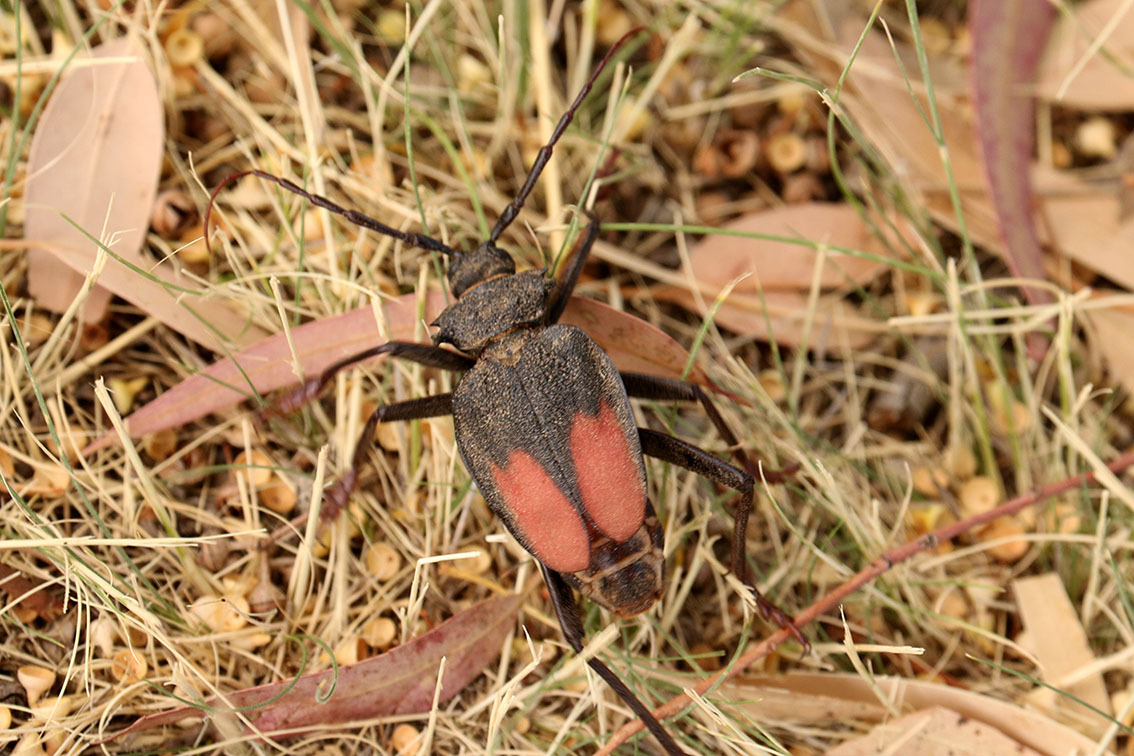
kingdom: Animalia
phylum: Arthropoda
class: Insecta
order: Coleoptera
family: Cerambycidae
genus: Apterocaulus
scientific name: Apterocaulus heterogama
